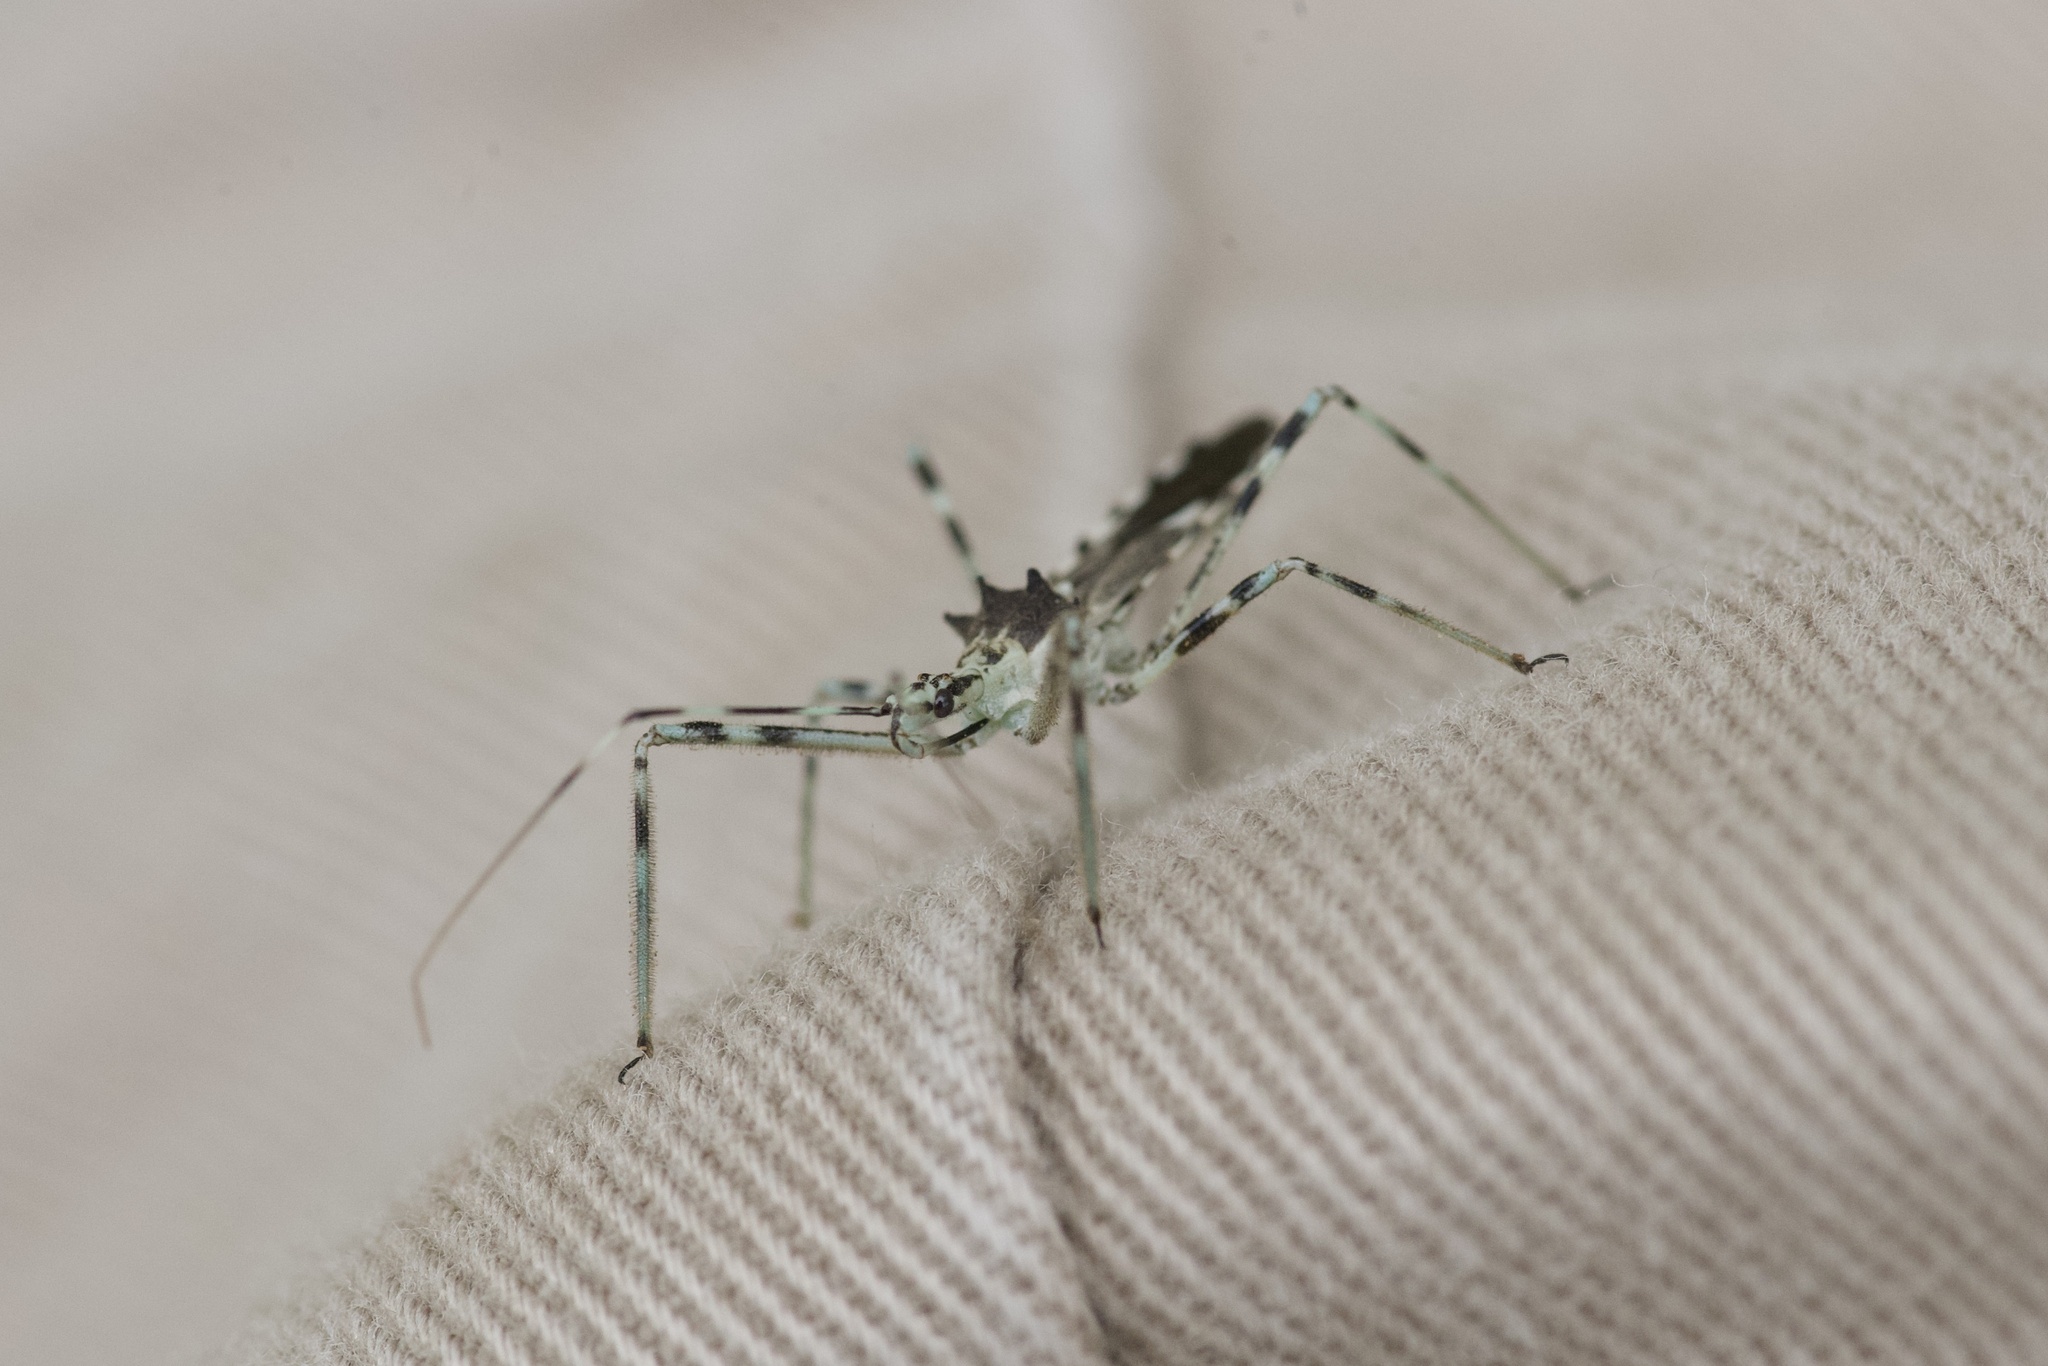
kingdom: Animalia
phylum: Arthropoda
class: Insecta
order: Hemiptera
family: Reduviidae
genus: Zelus
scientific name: Zelus tetracanthus
